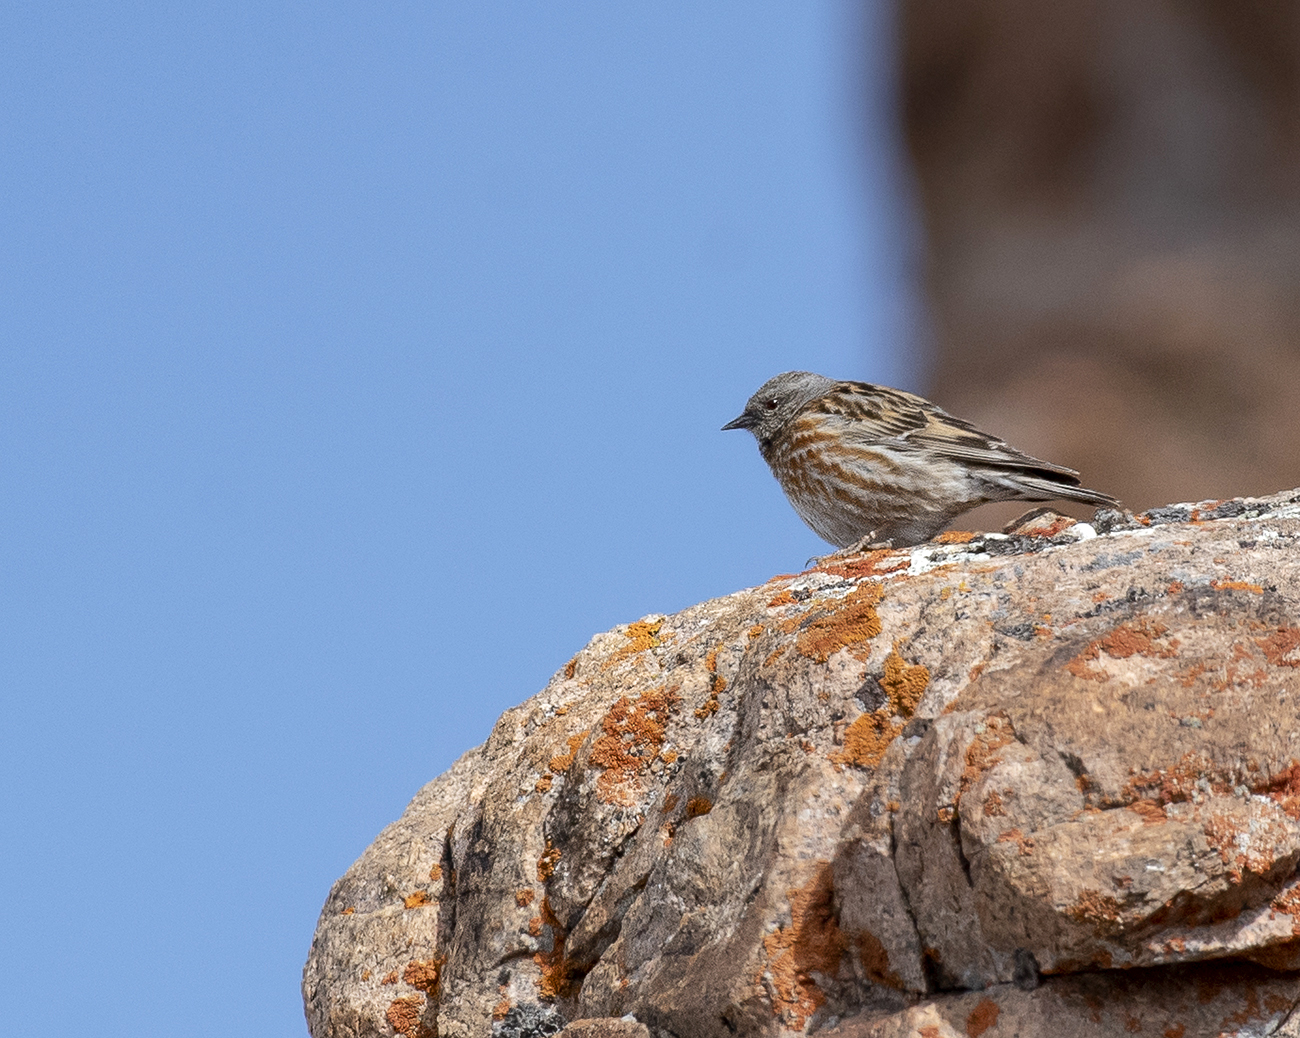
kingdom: Animalia
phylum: Chordata
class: Aves
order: Passeriformes
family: Prunellidae
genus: Prunella
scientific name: Prunella himalayana
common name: Altai accentor
